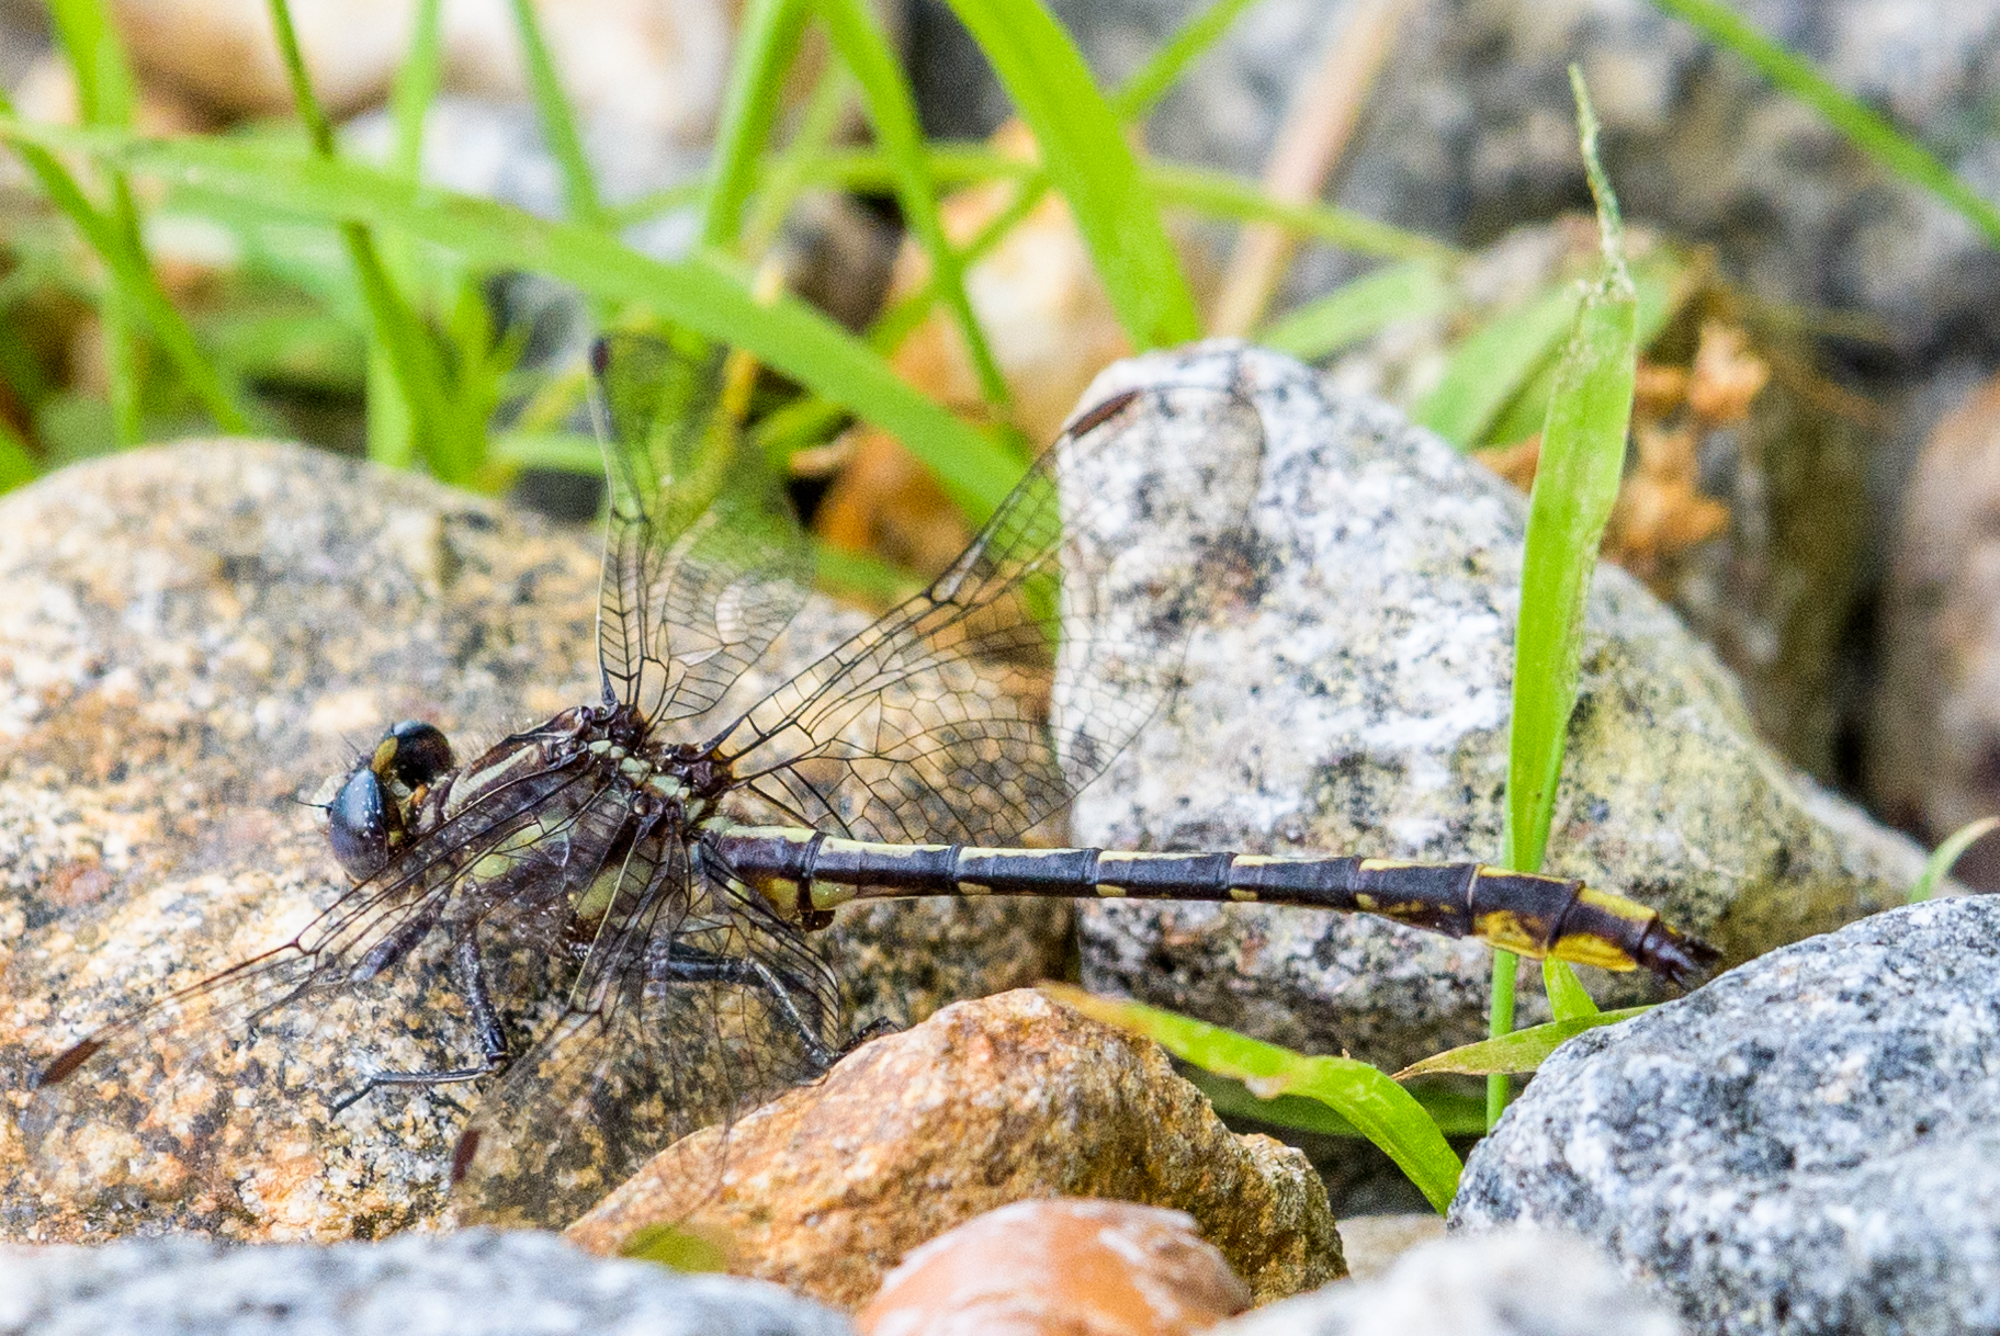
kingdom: Animalia
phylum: Arthropoda
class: Insecta
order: Odonata
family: Gomphidae
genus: Phanogomphus
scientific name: Phanogomphus exilis
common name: Lancet clubtail
